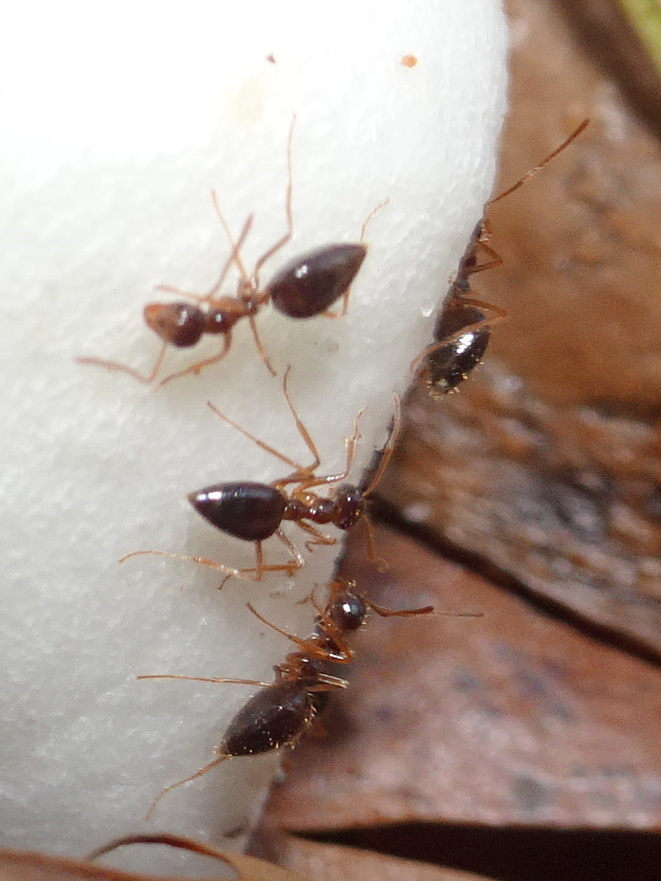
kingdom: Animalia
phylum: Arthropoda
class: Insecta
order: Hymenoptera
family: Formicidae
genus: Prenolepis
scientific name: Prenolepis imparis
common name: Small honey ant
